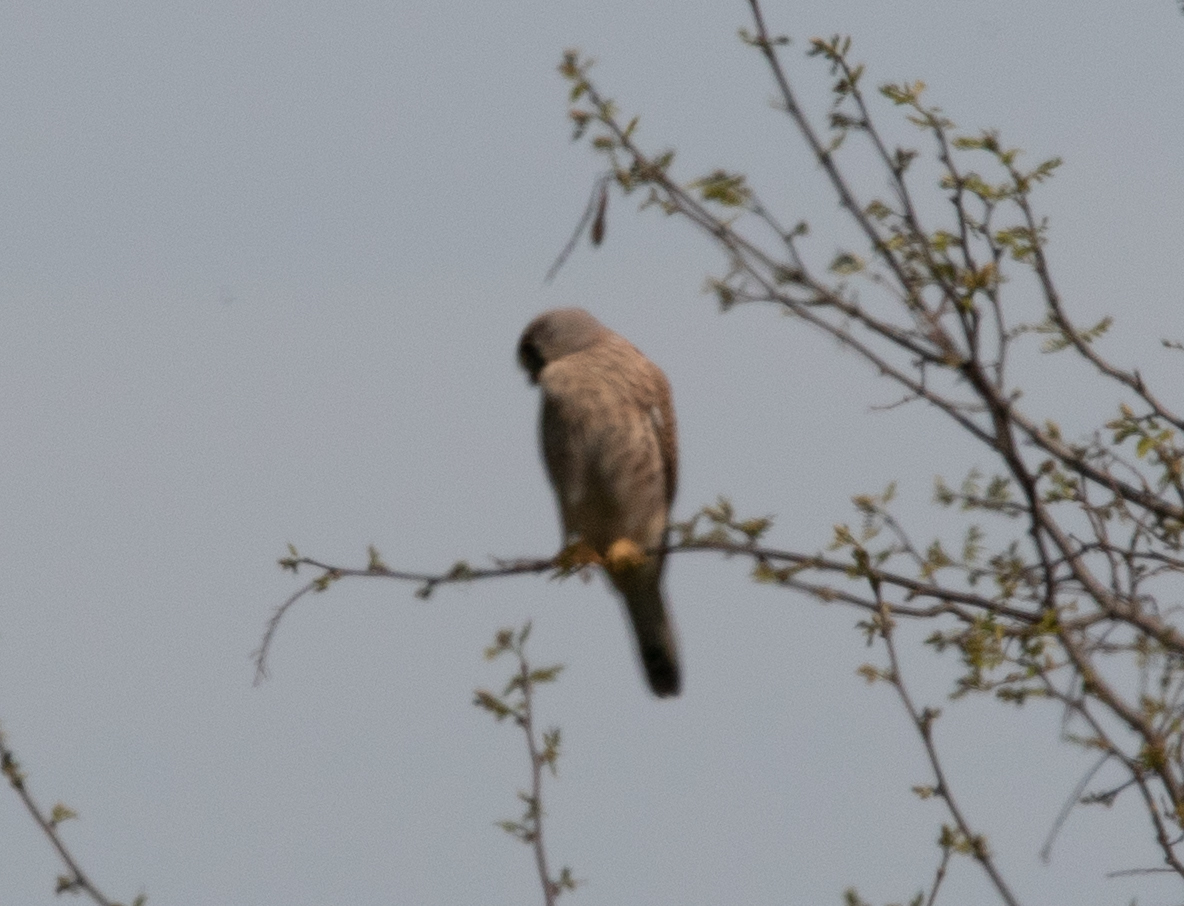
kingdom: Animalia
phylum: Chordata
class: Aves
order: Falconiformes
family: Falconidae
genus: Falco
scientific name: Falco tinnunculus
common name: Common kestrel
